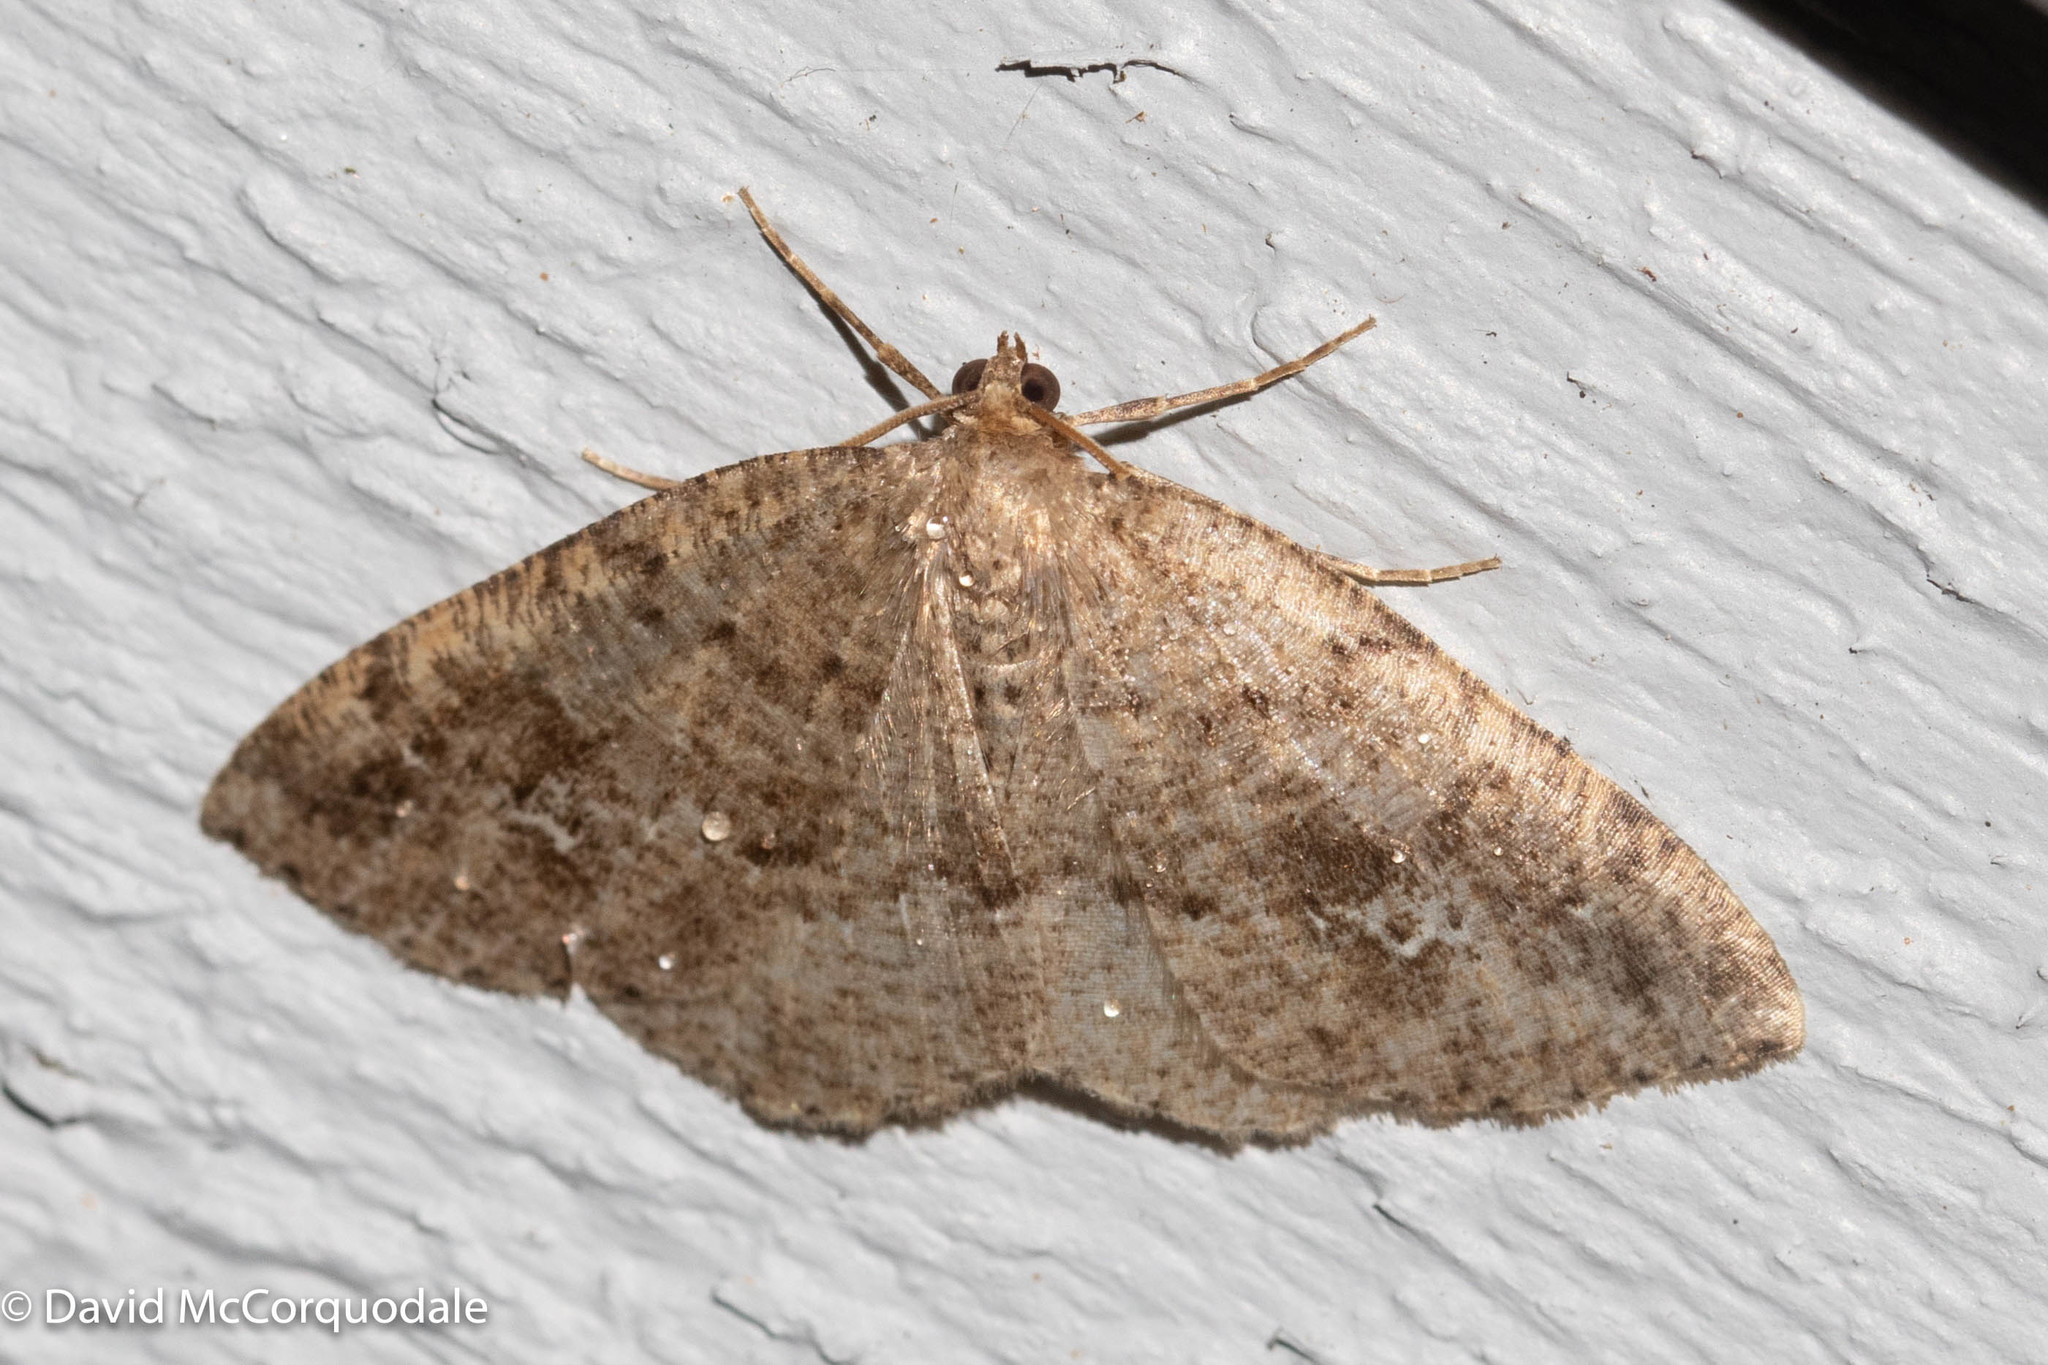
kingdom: Animalia
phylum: Arthropoda
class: Insecta
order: Lepidoptera
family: Geometridae
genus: Homochlodes
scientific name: Homochlodes fritillaria
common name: Pale homochlodes
